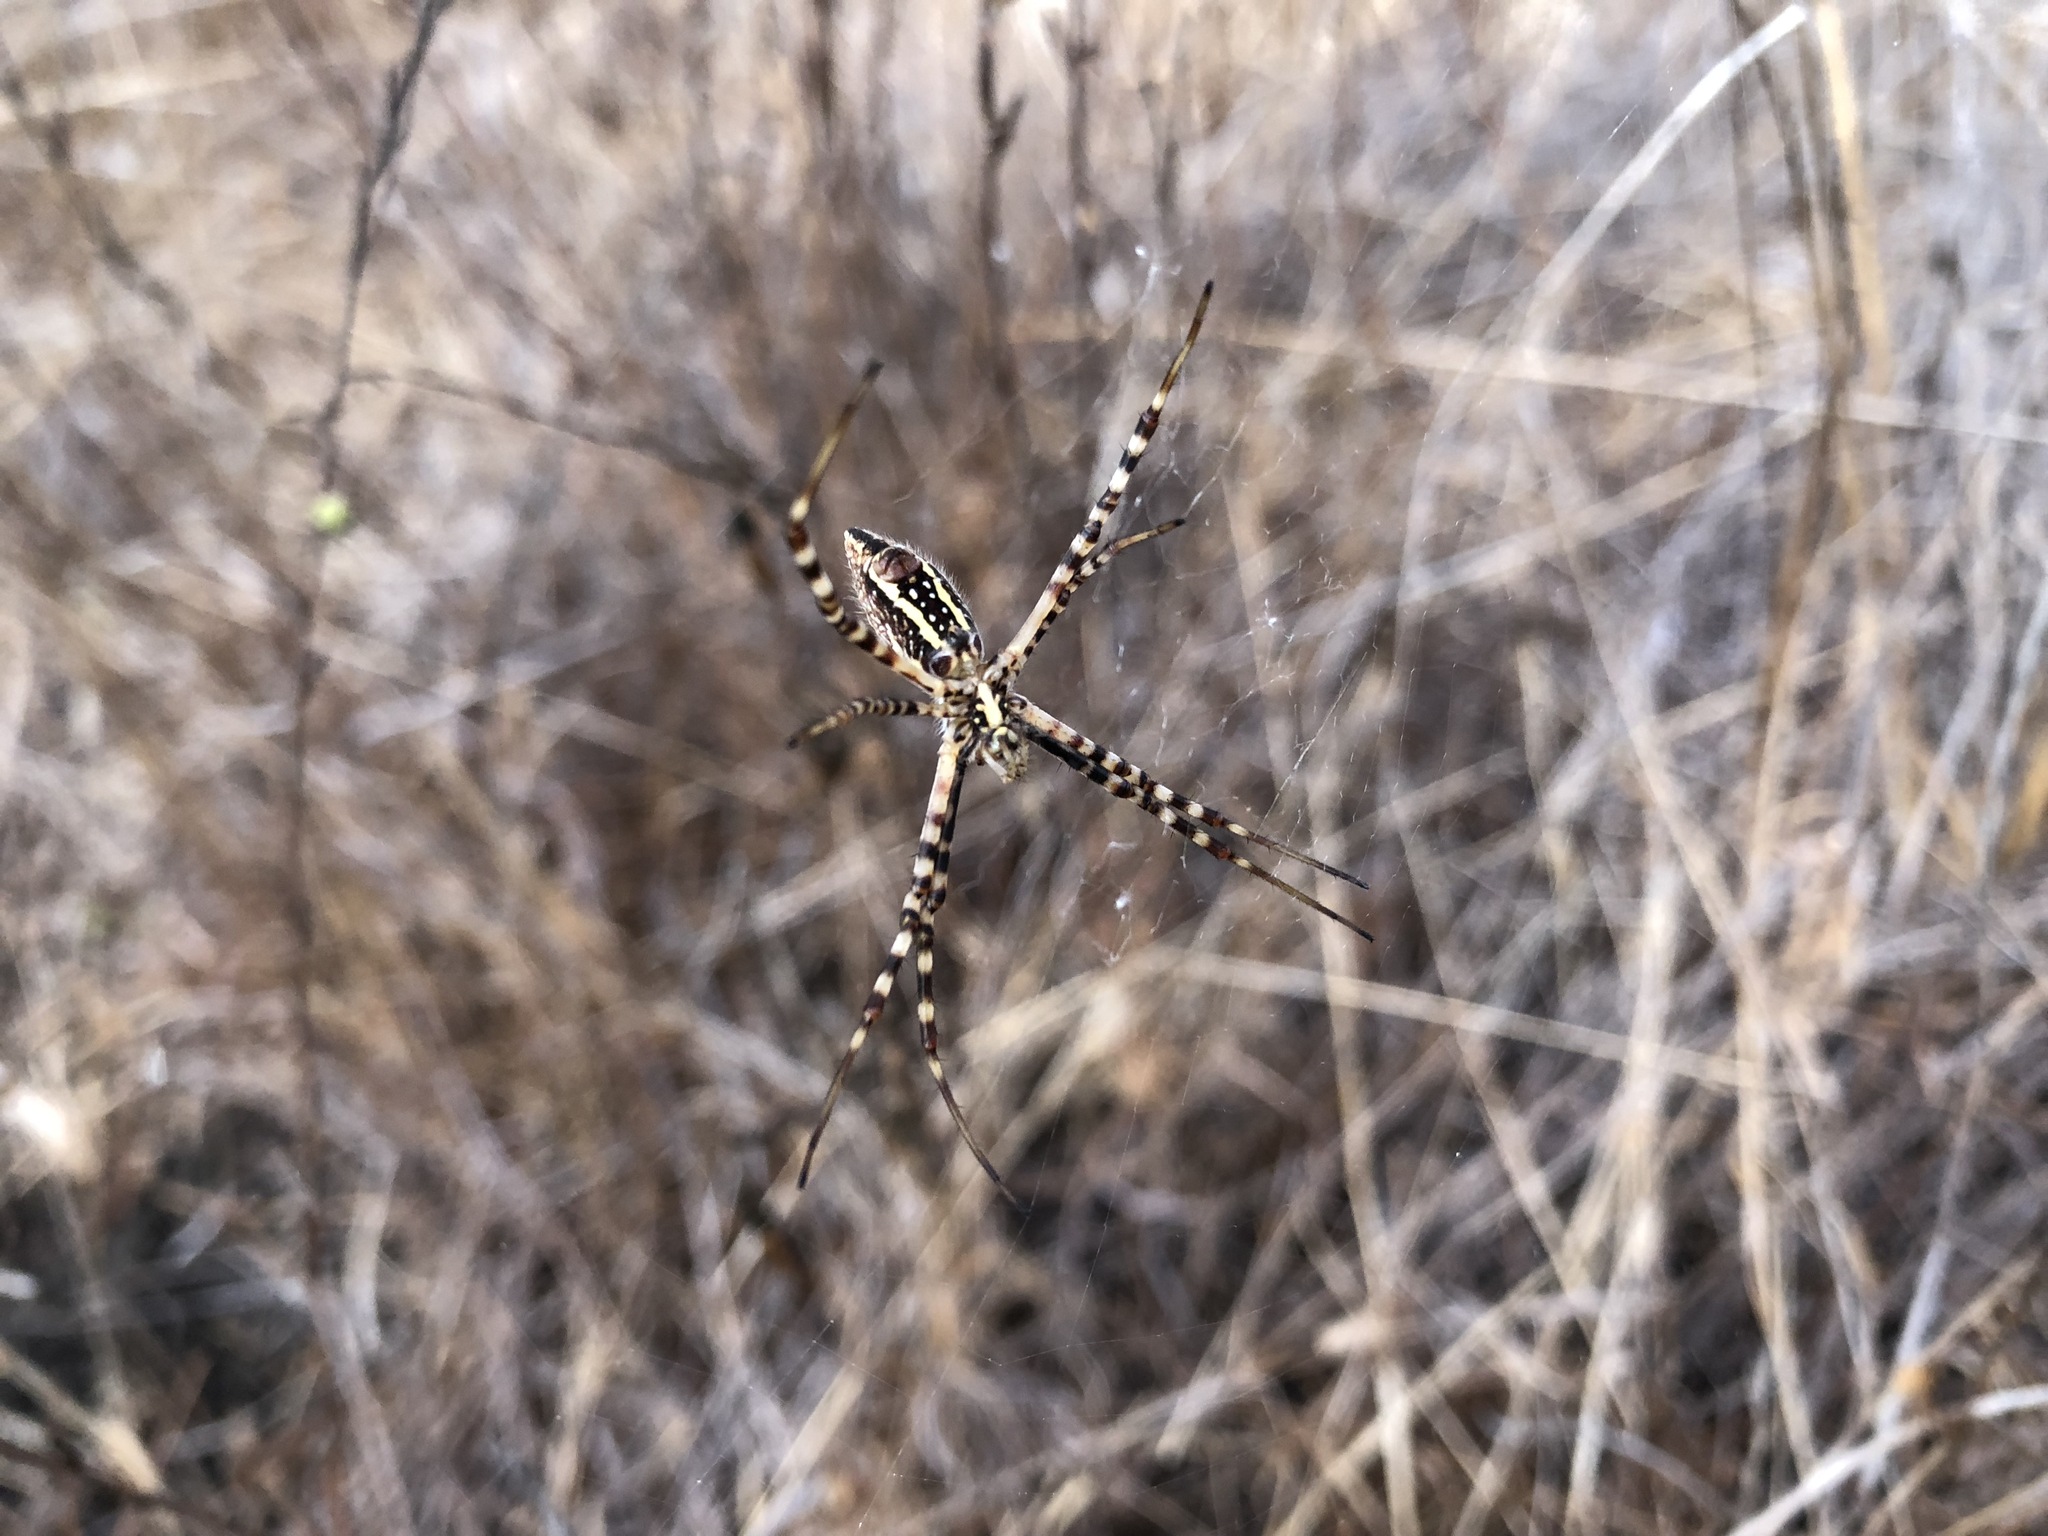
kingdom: Animalia
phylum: Arthropoda
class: Arachnida
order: Araneae
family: Araneidae
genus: Argiope
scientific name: Argiope trifasciata
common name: Banded garden spider
